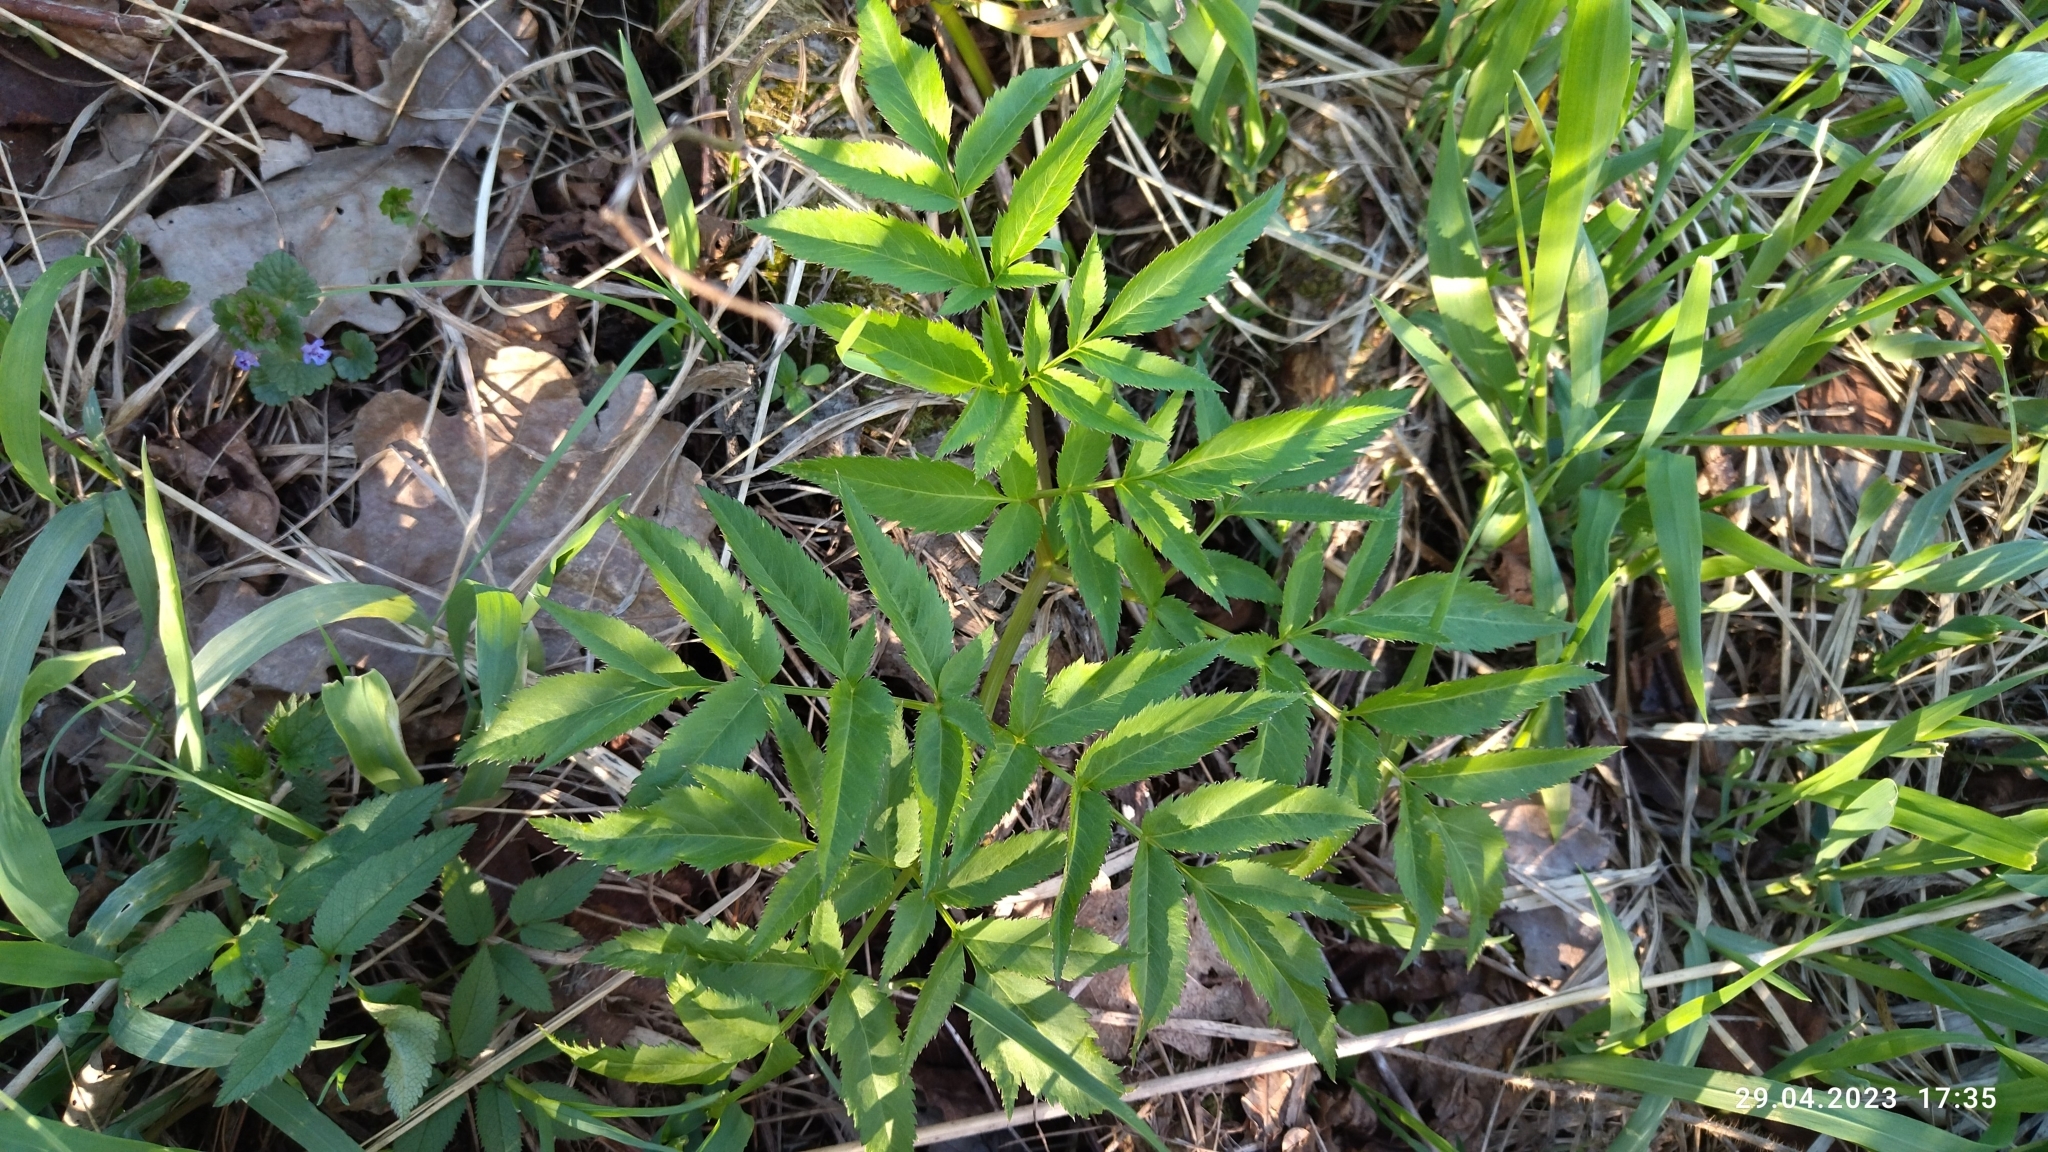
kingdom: Plantae
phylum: Tracheophyta
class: Magnoliopsida
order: Apiales
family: Apiaceae
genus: Angelica
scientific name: Angelica sylvestris
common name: Wild angelica
